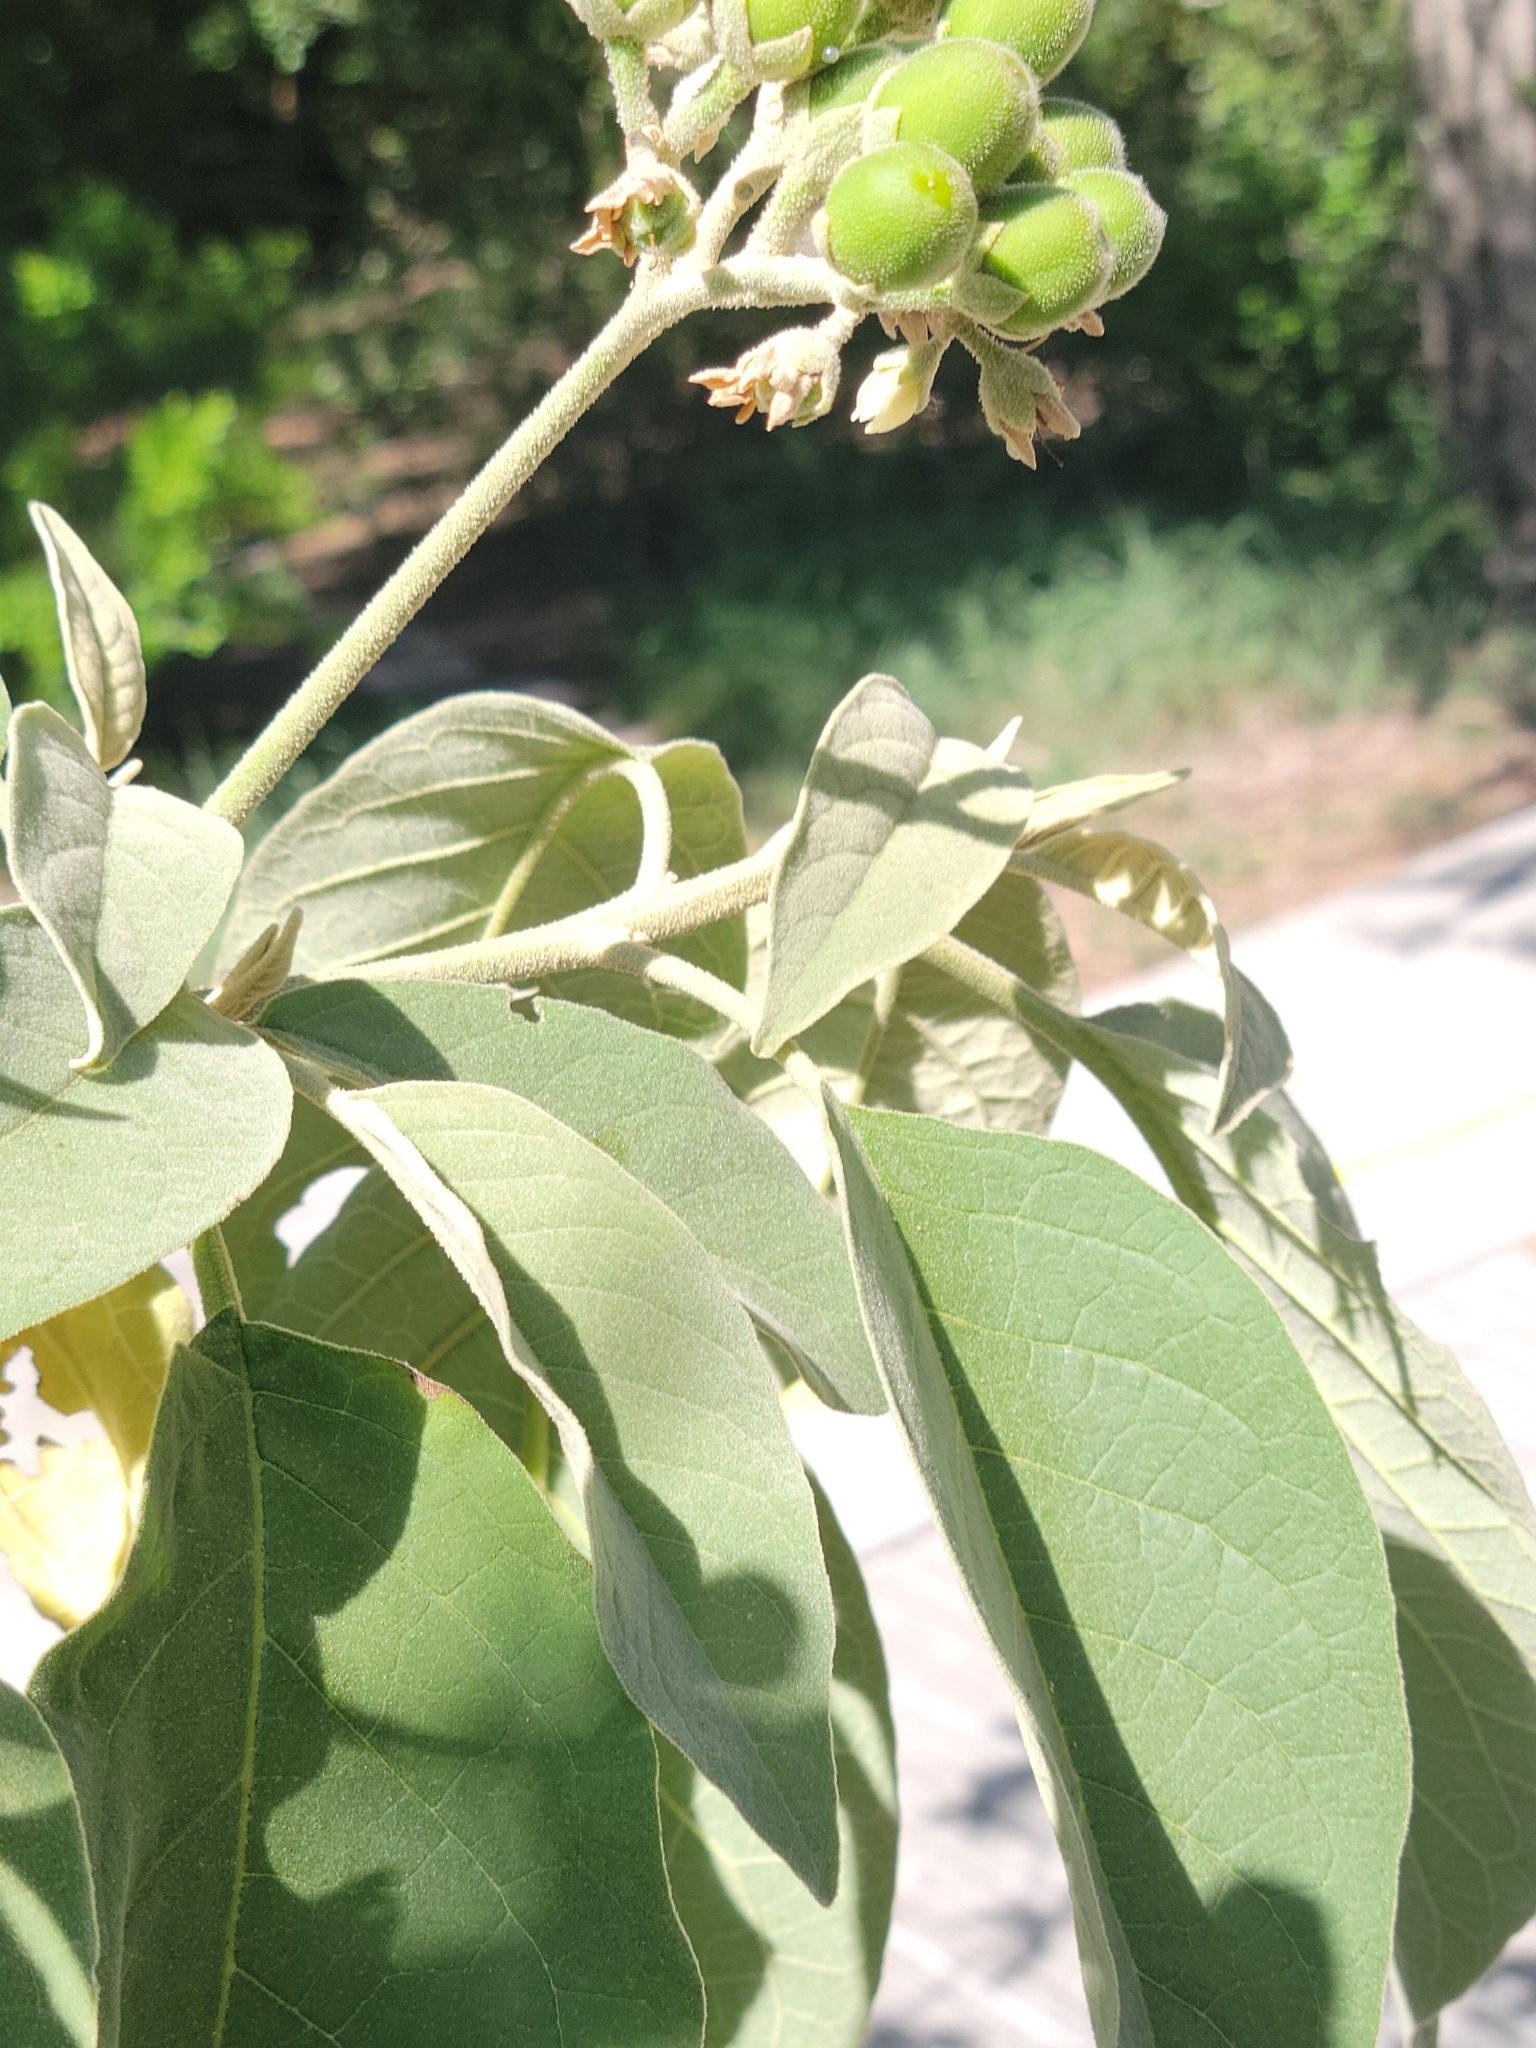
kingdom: Plantae
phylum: Tracheophyta
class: Magnoliopsida
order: Solanales
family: Solanaceae
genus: Solanum
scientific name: Solanum erianthum
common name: Tobacco-tree
